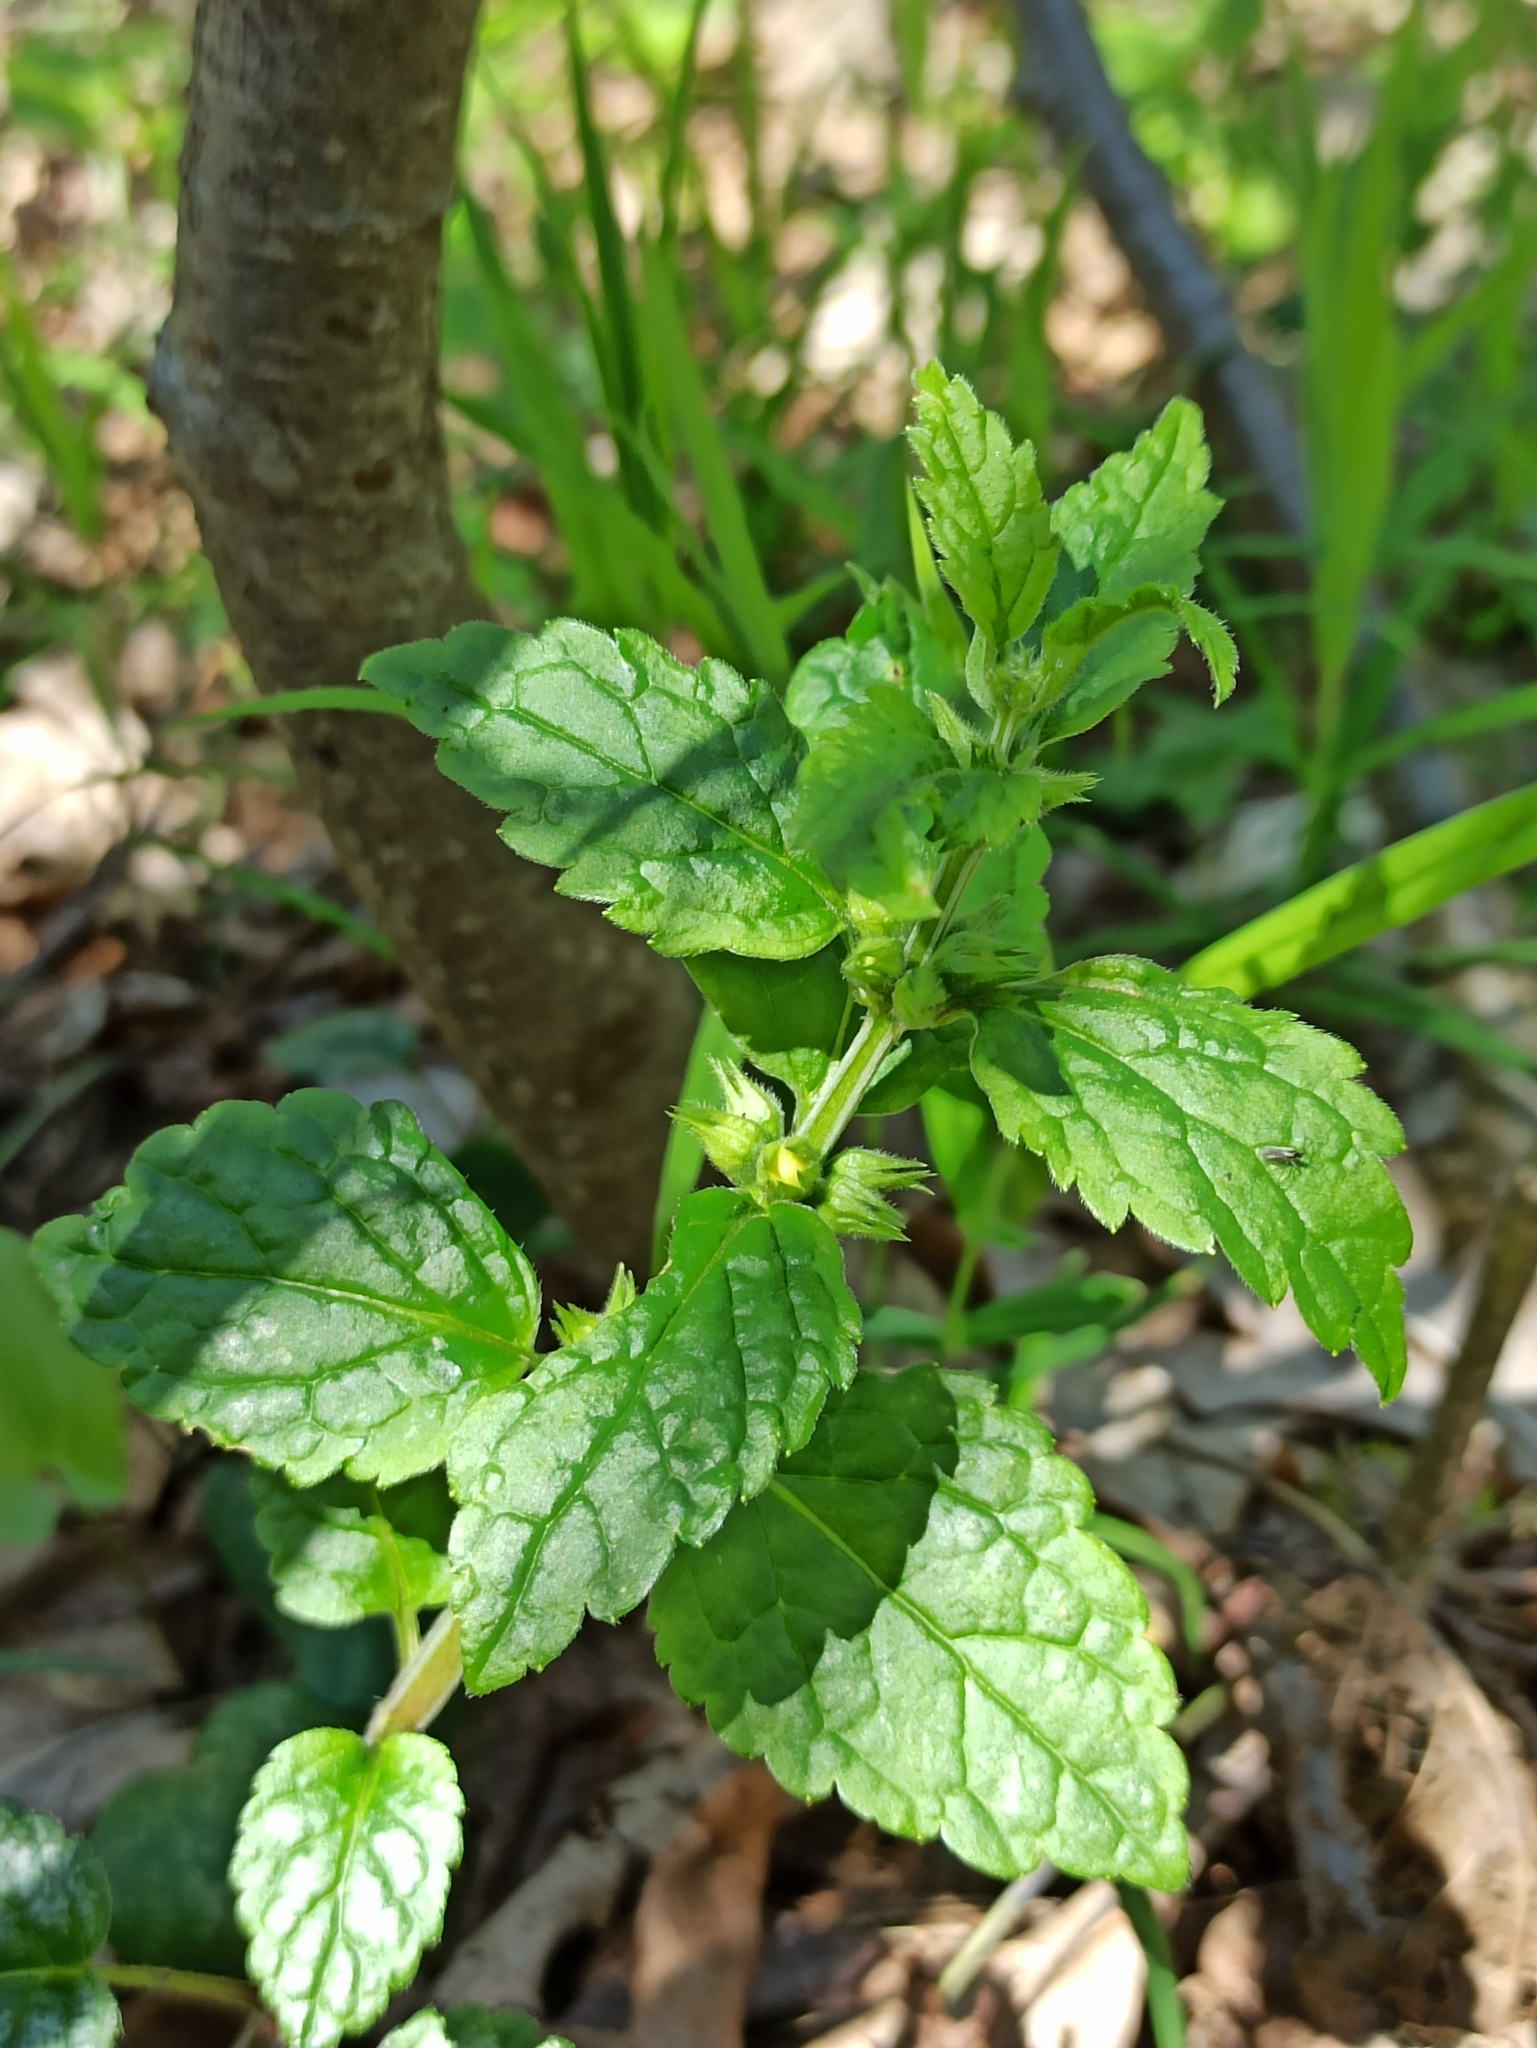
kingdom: Plantae
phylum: Tracheophyta
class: Magnoliopsida
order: Lamiales
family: Lamiaceae
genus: Lamium
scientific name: Lamium galeobdolon
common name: Yellow archangel
